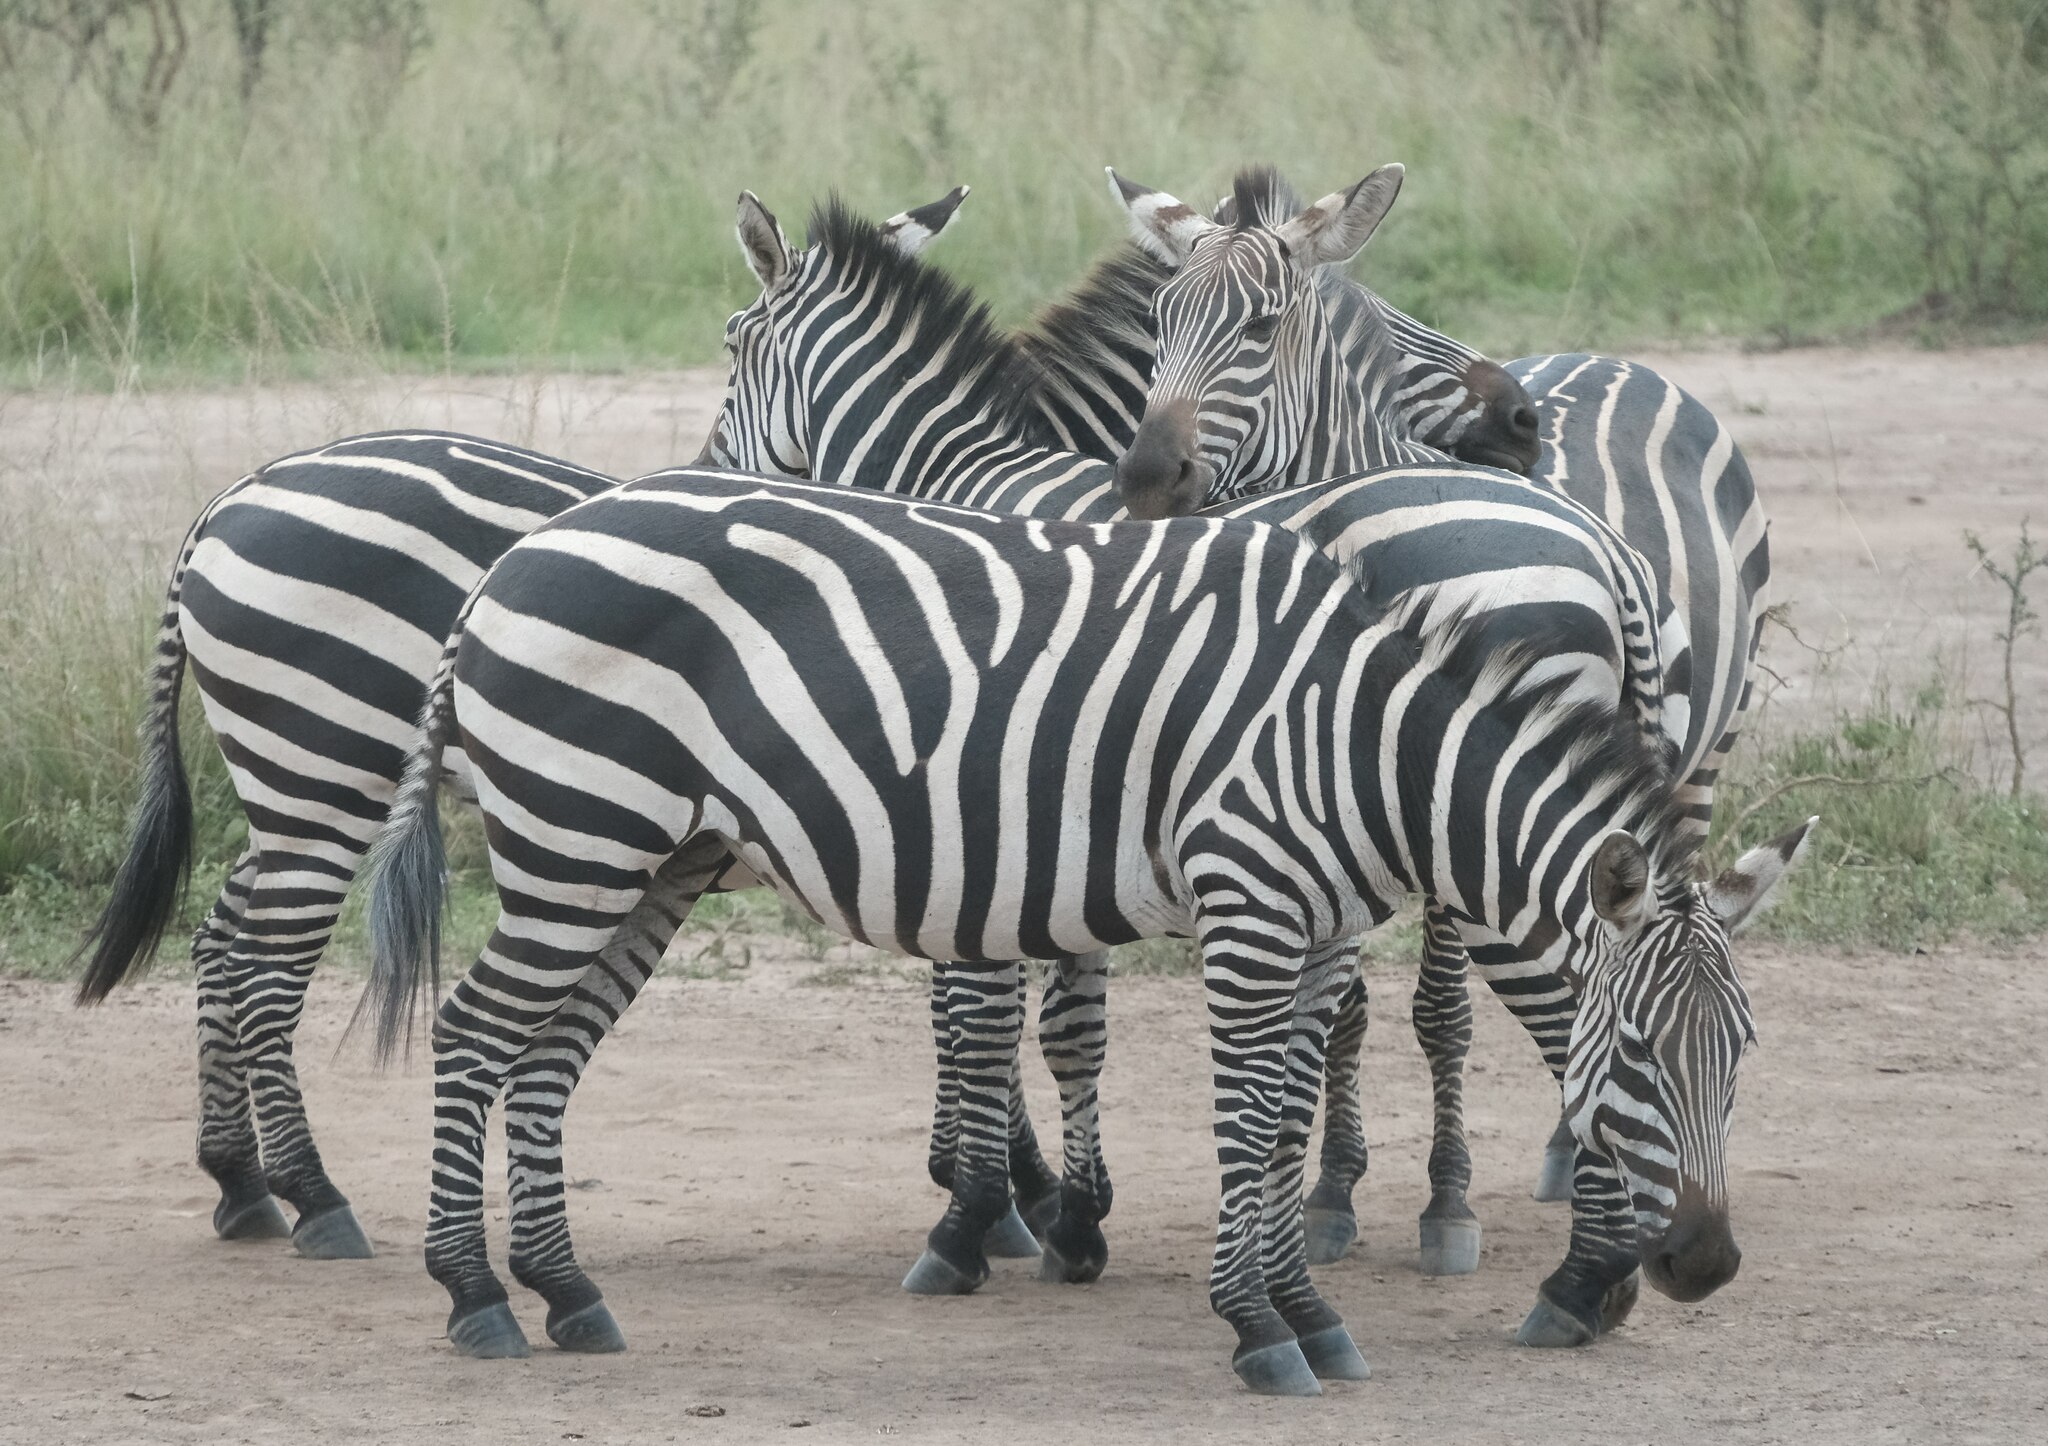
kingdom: Animalia
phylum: Chordata
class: Mammalia
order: Perissodactyla
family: Equidae
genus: Equus
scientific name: Equus quagga
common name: Plains zebra
